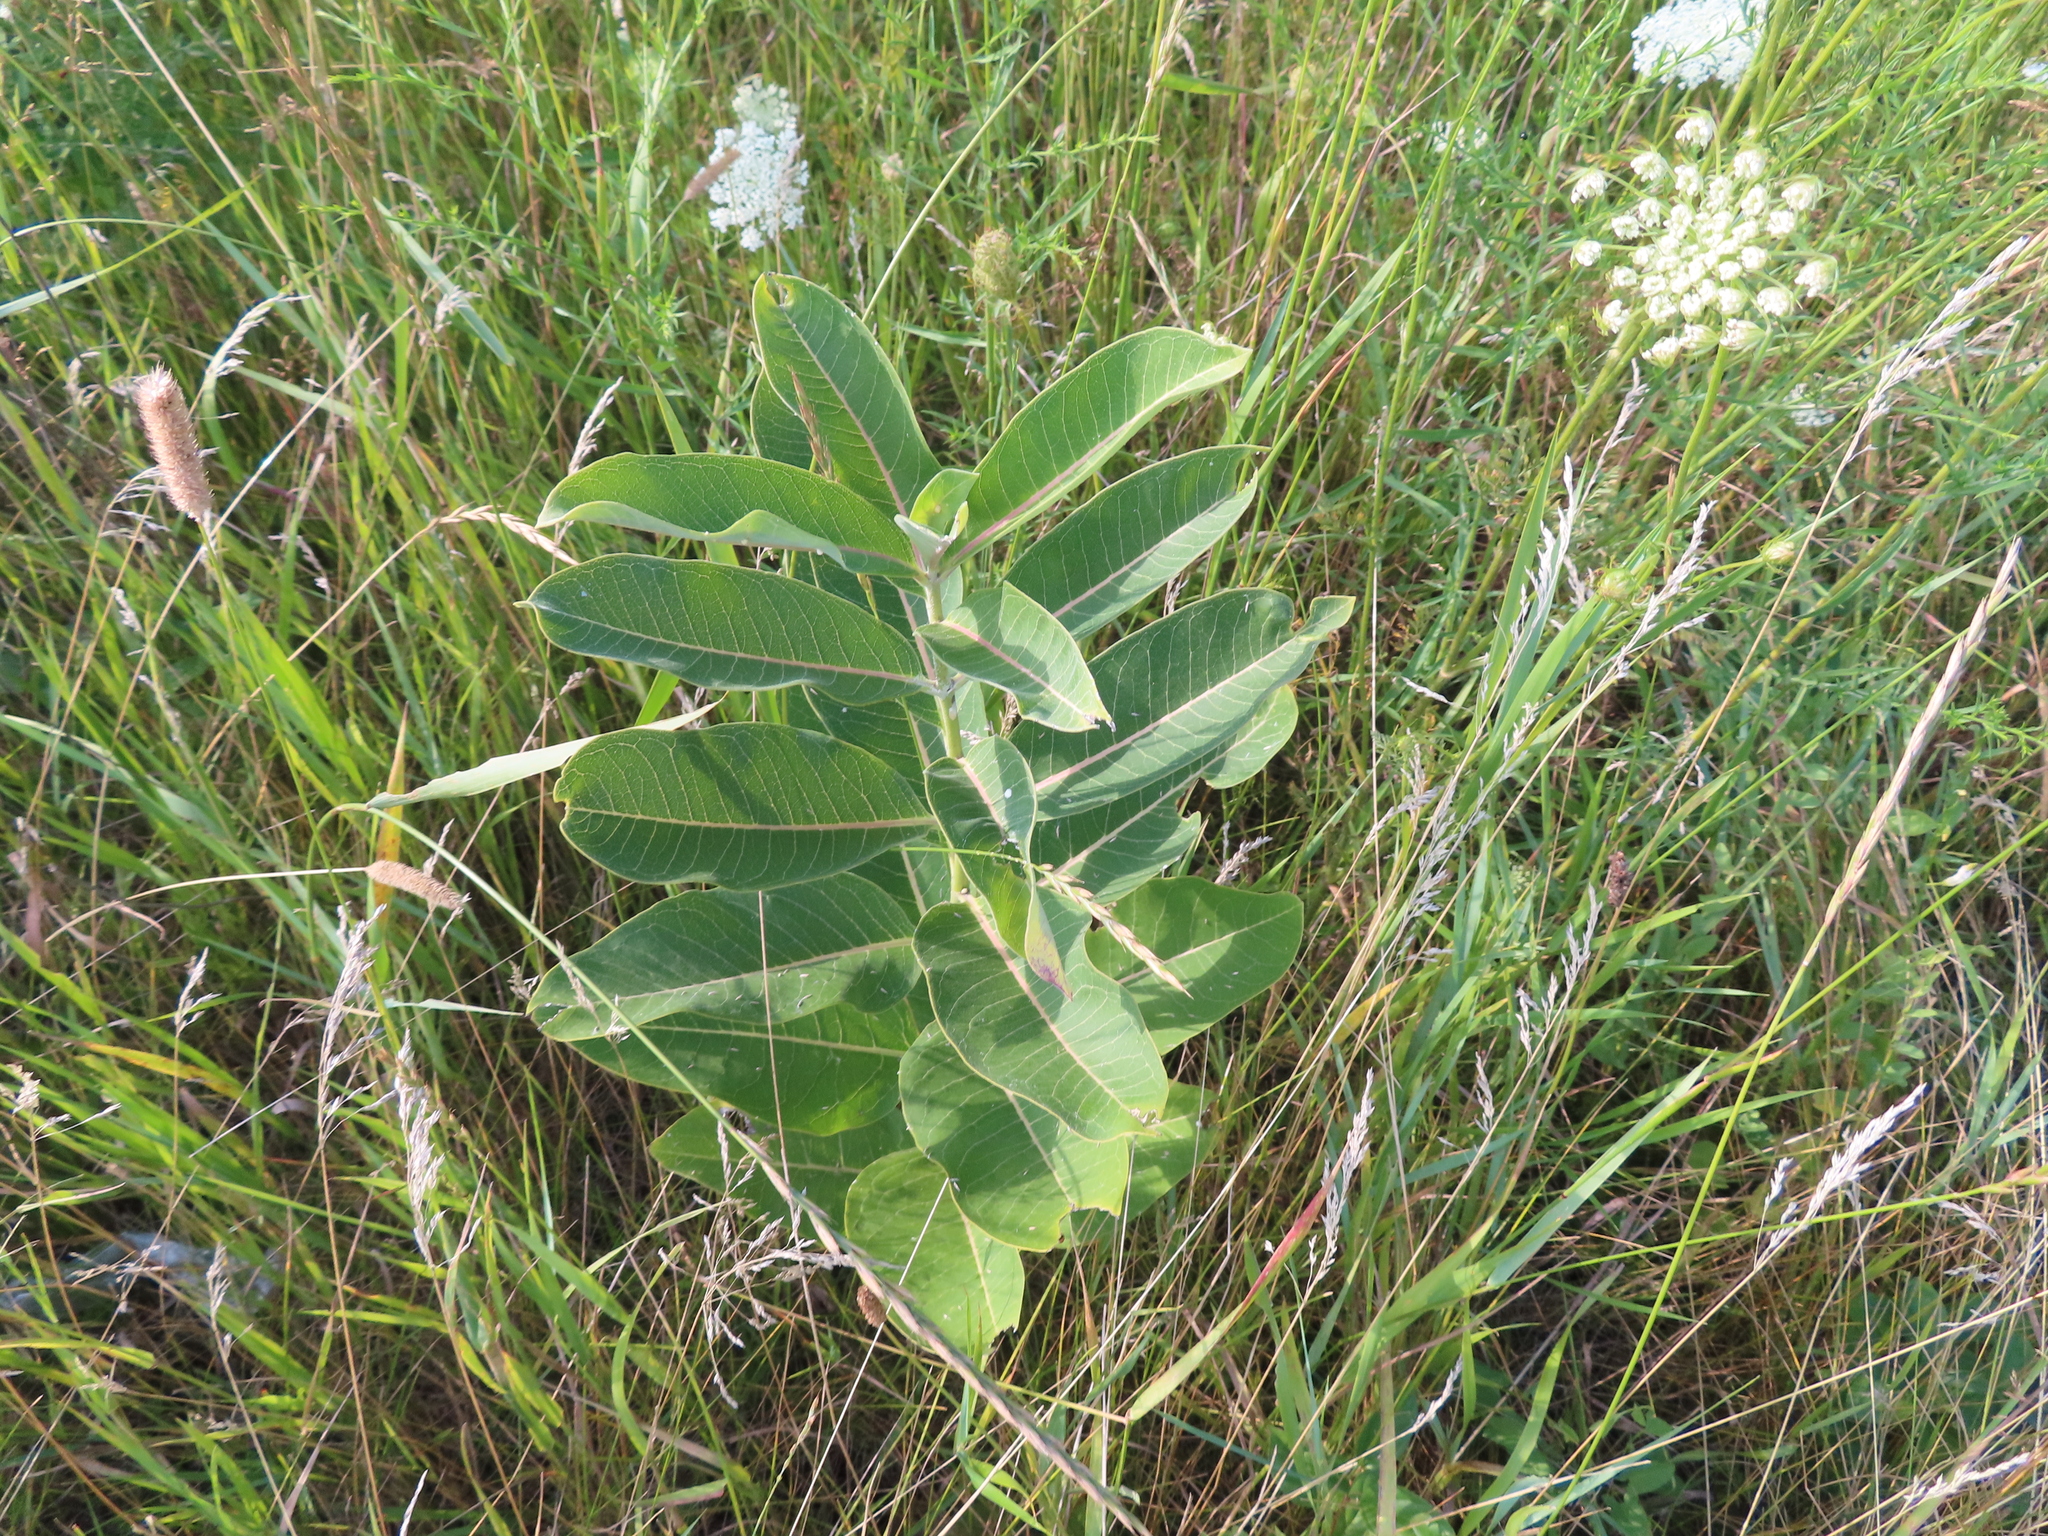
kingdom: Plantae
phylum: Tracheophyta
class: Magnoliopsida
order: Gentianales
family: Apocynaceae
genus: Asclepias
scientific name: Asclepias syriaca
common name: Common milkweed
